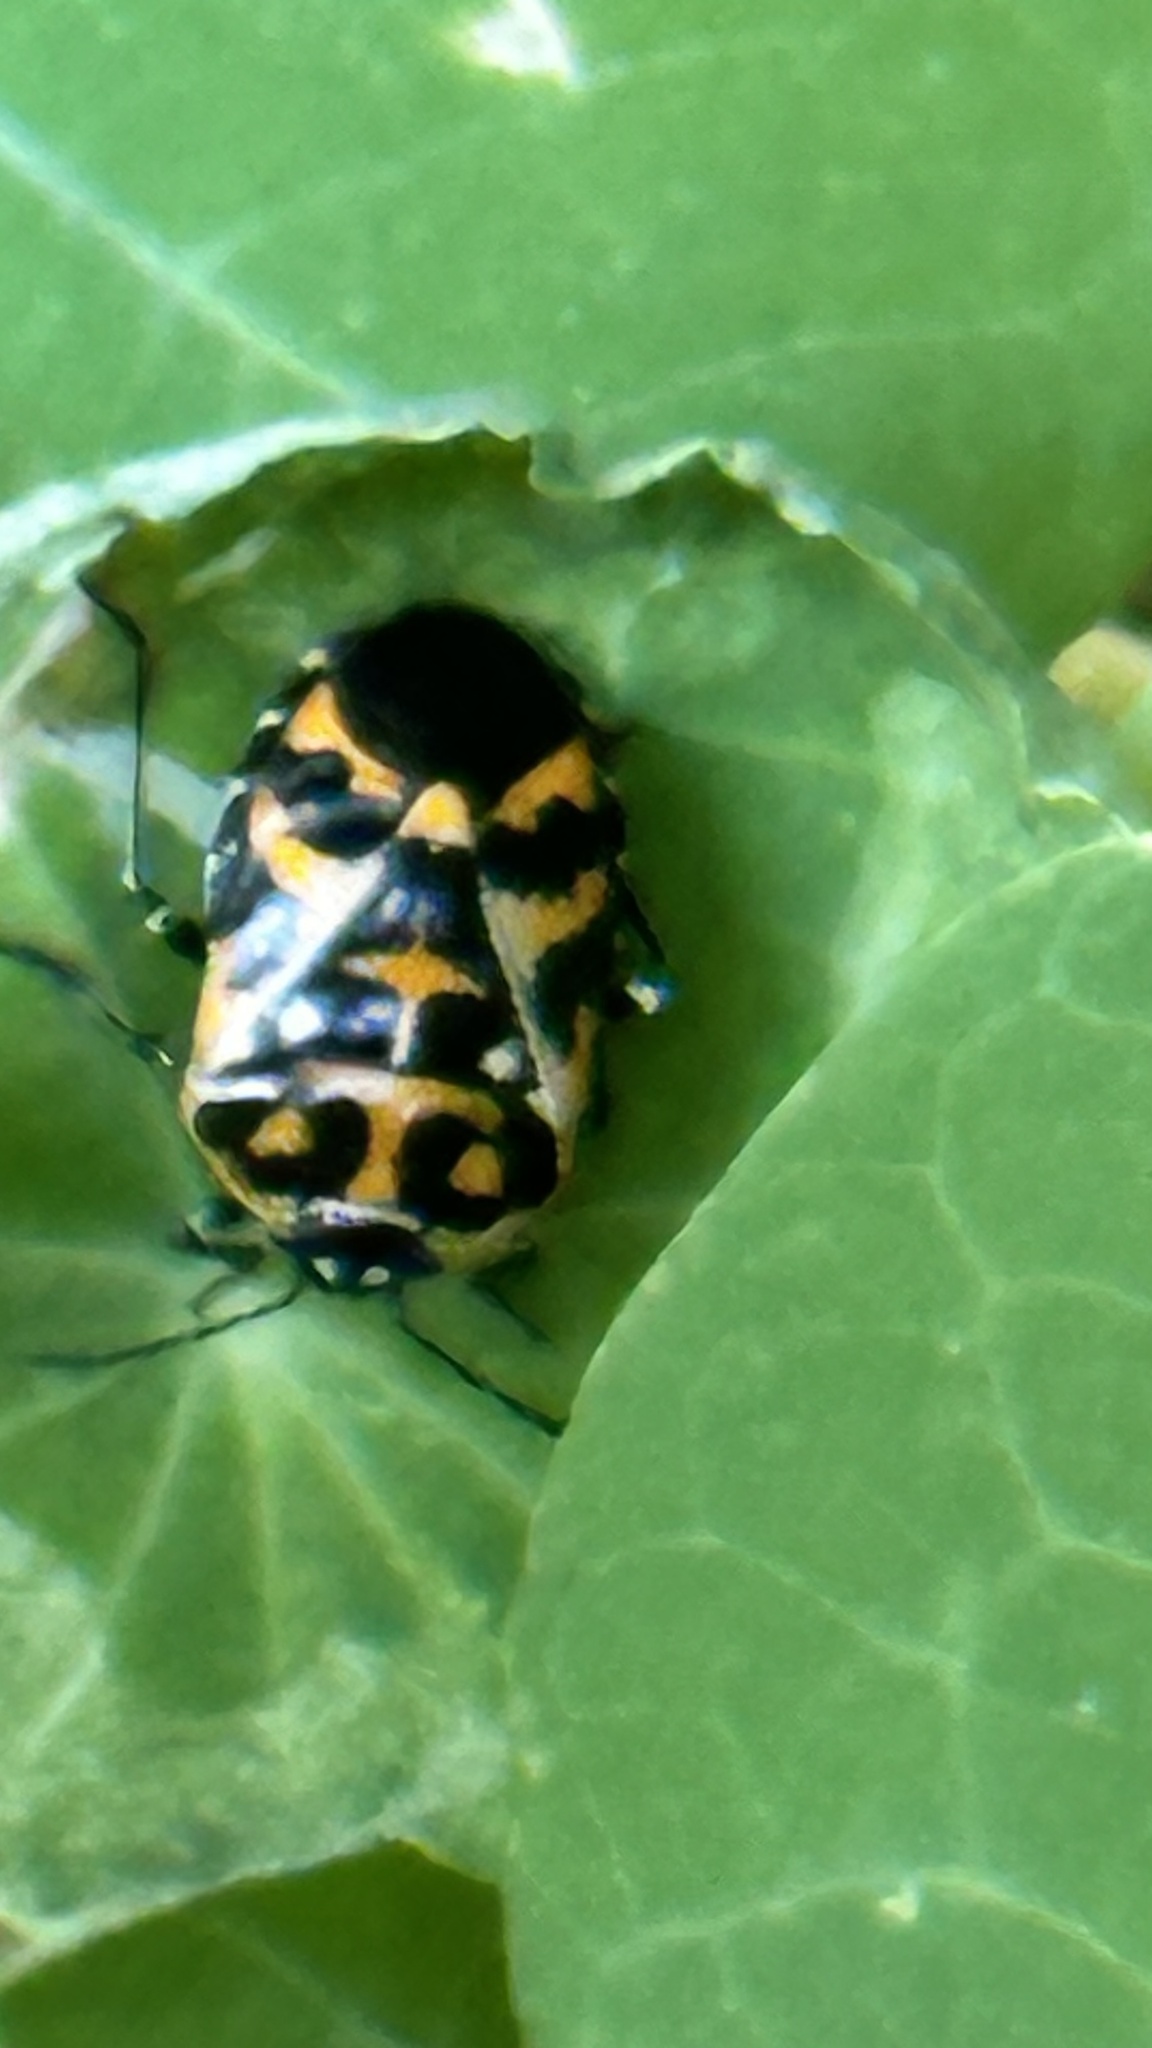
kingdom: Animalia
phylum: Arthropoda
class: Insecta
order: Hemiptera
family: Pentatomidae
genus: Murgantia
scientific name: Murgantia histrionica
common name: Harlequin bug
